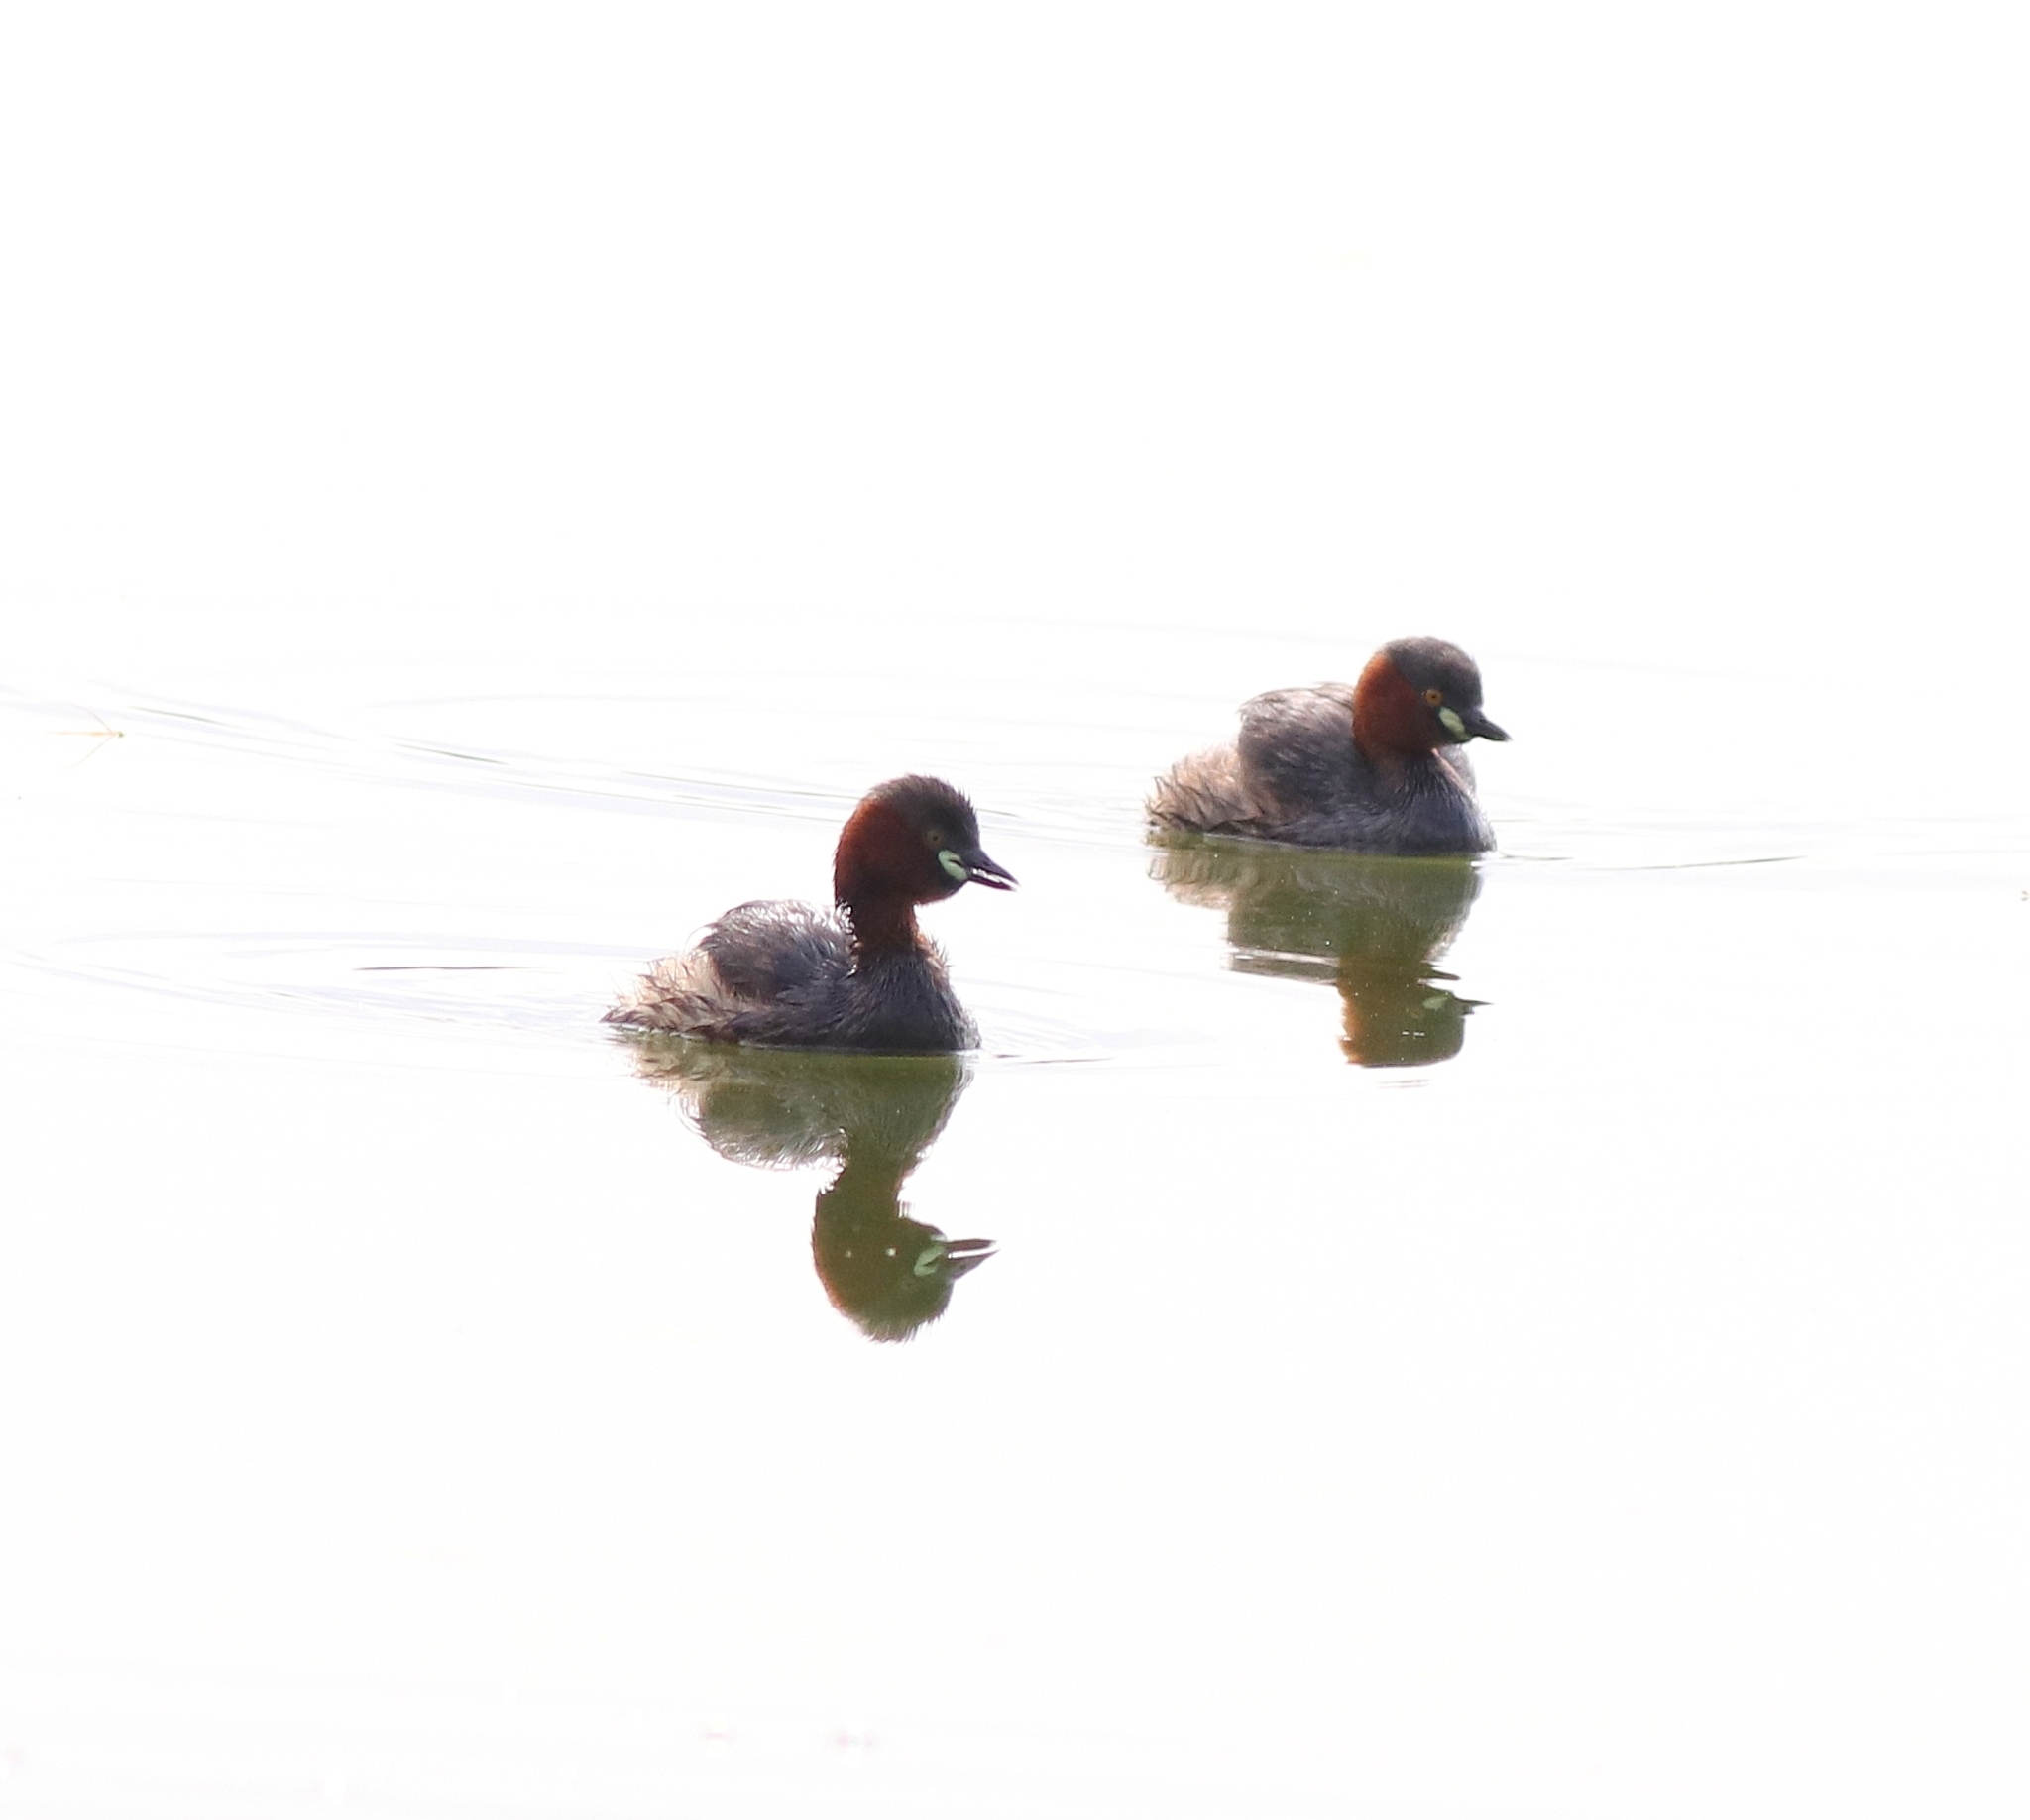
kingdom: Animalia
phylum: Chordata
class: Aves
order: Podicipediformes
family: Podicipedidae
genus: Tachybaptus
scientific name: Tachybaptus ruficollis
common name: Little grebe
